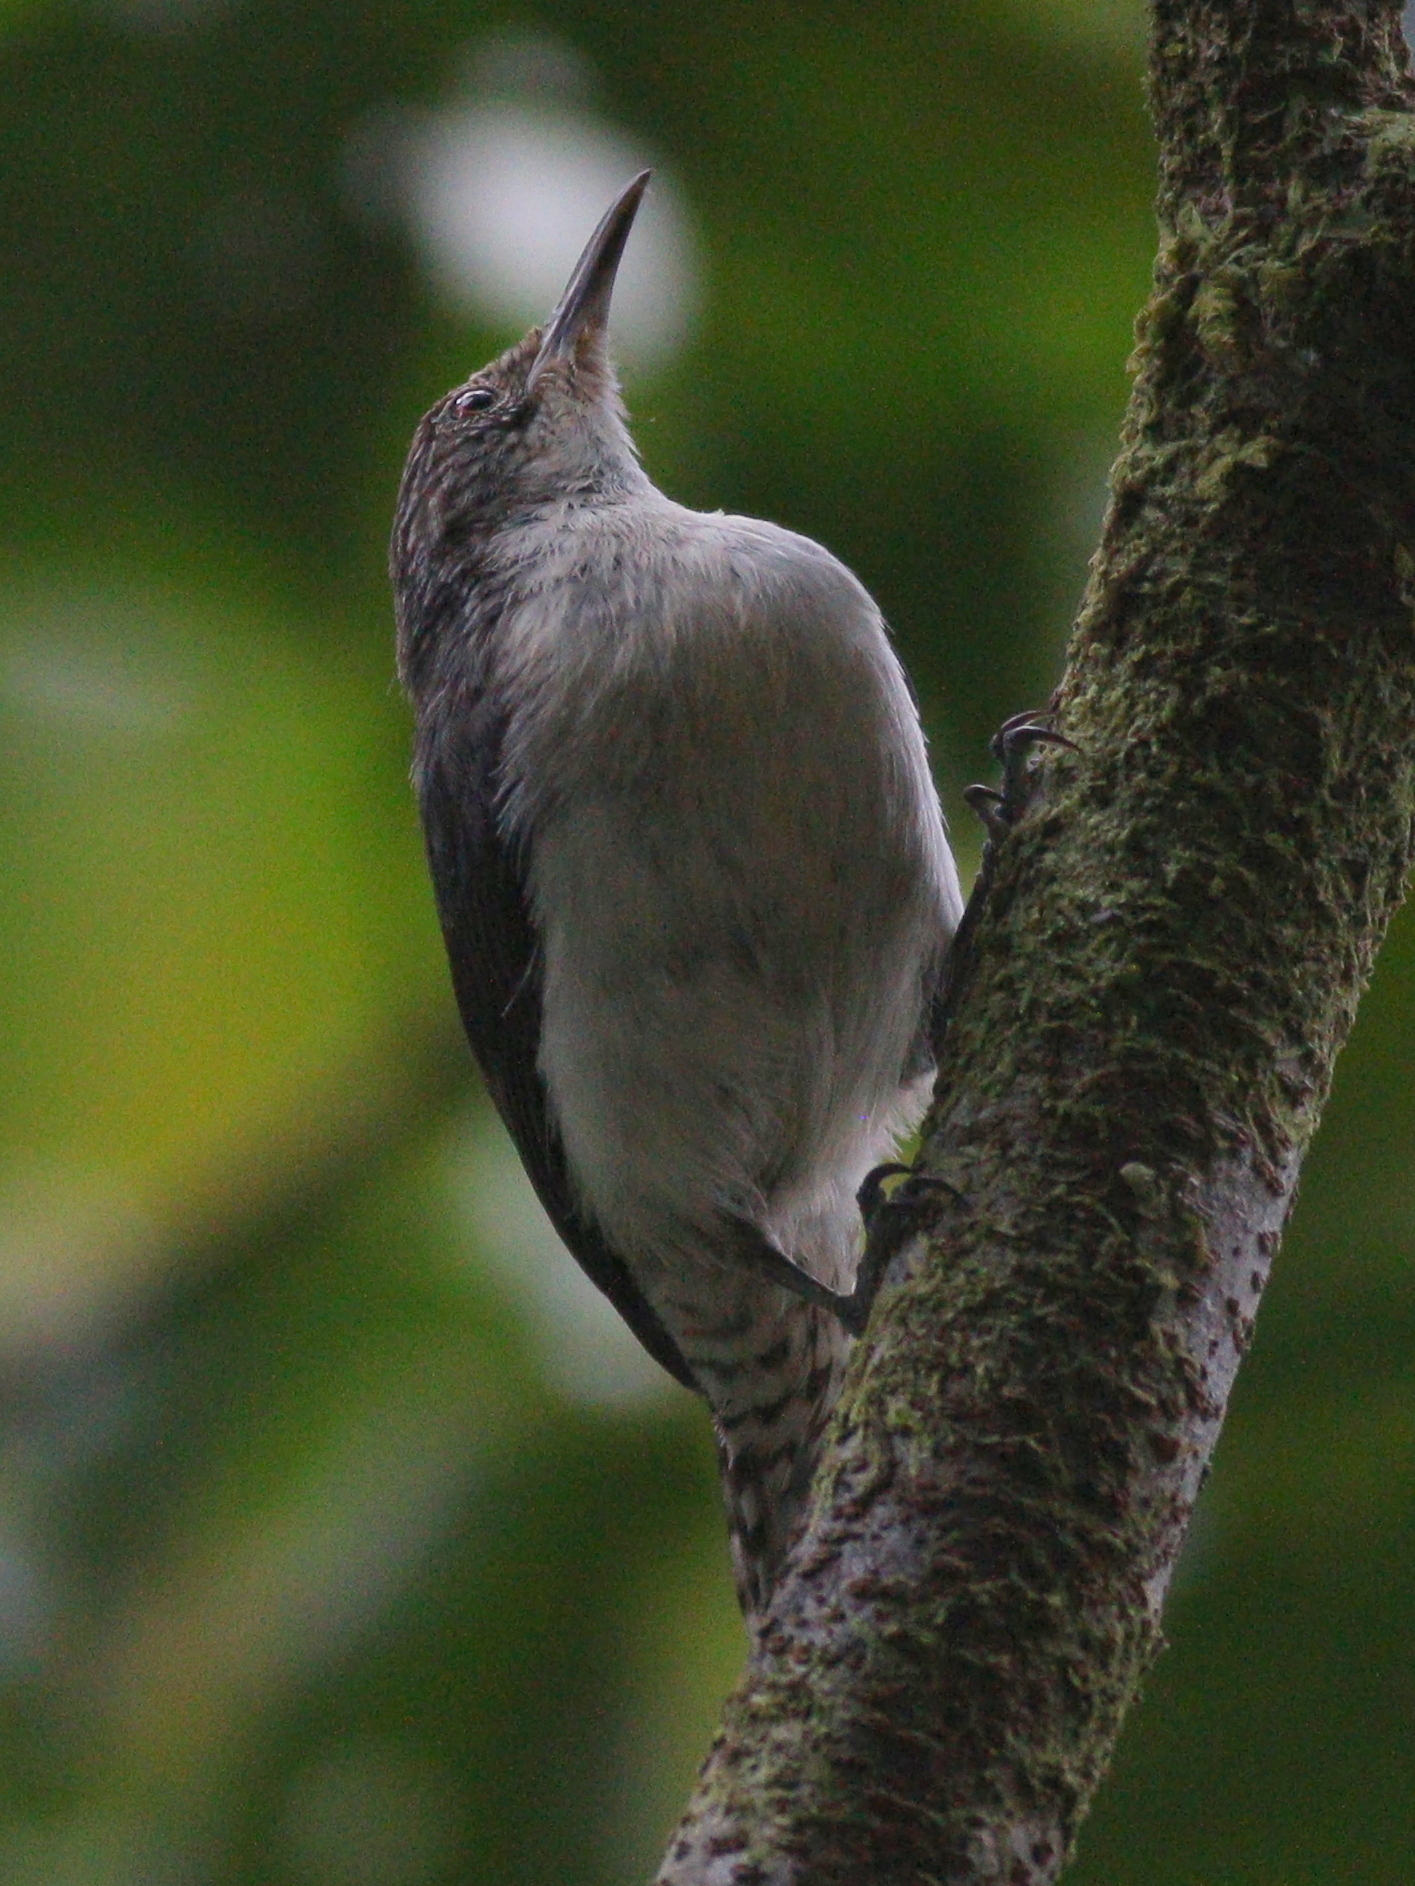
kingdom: Animalia
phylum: Chordata
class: Aves
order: Passeriformes
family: Troglodytidae
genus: Odontorchilus
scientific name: Odontorchilus branickii
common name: Grey-mantled wren
